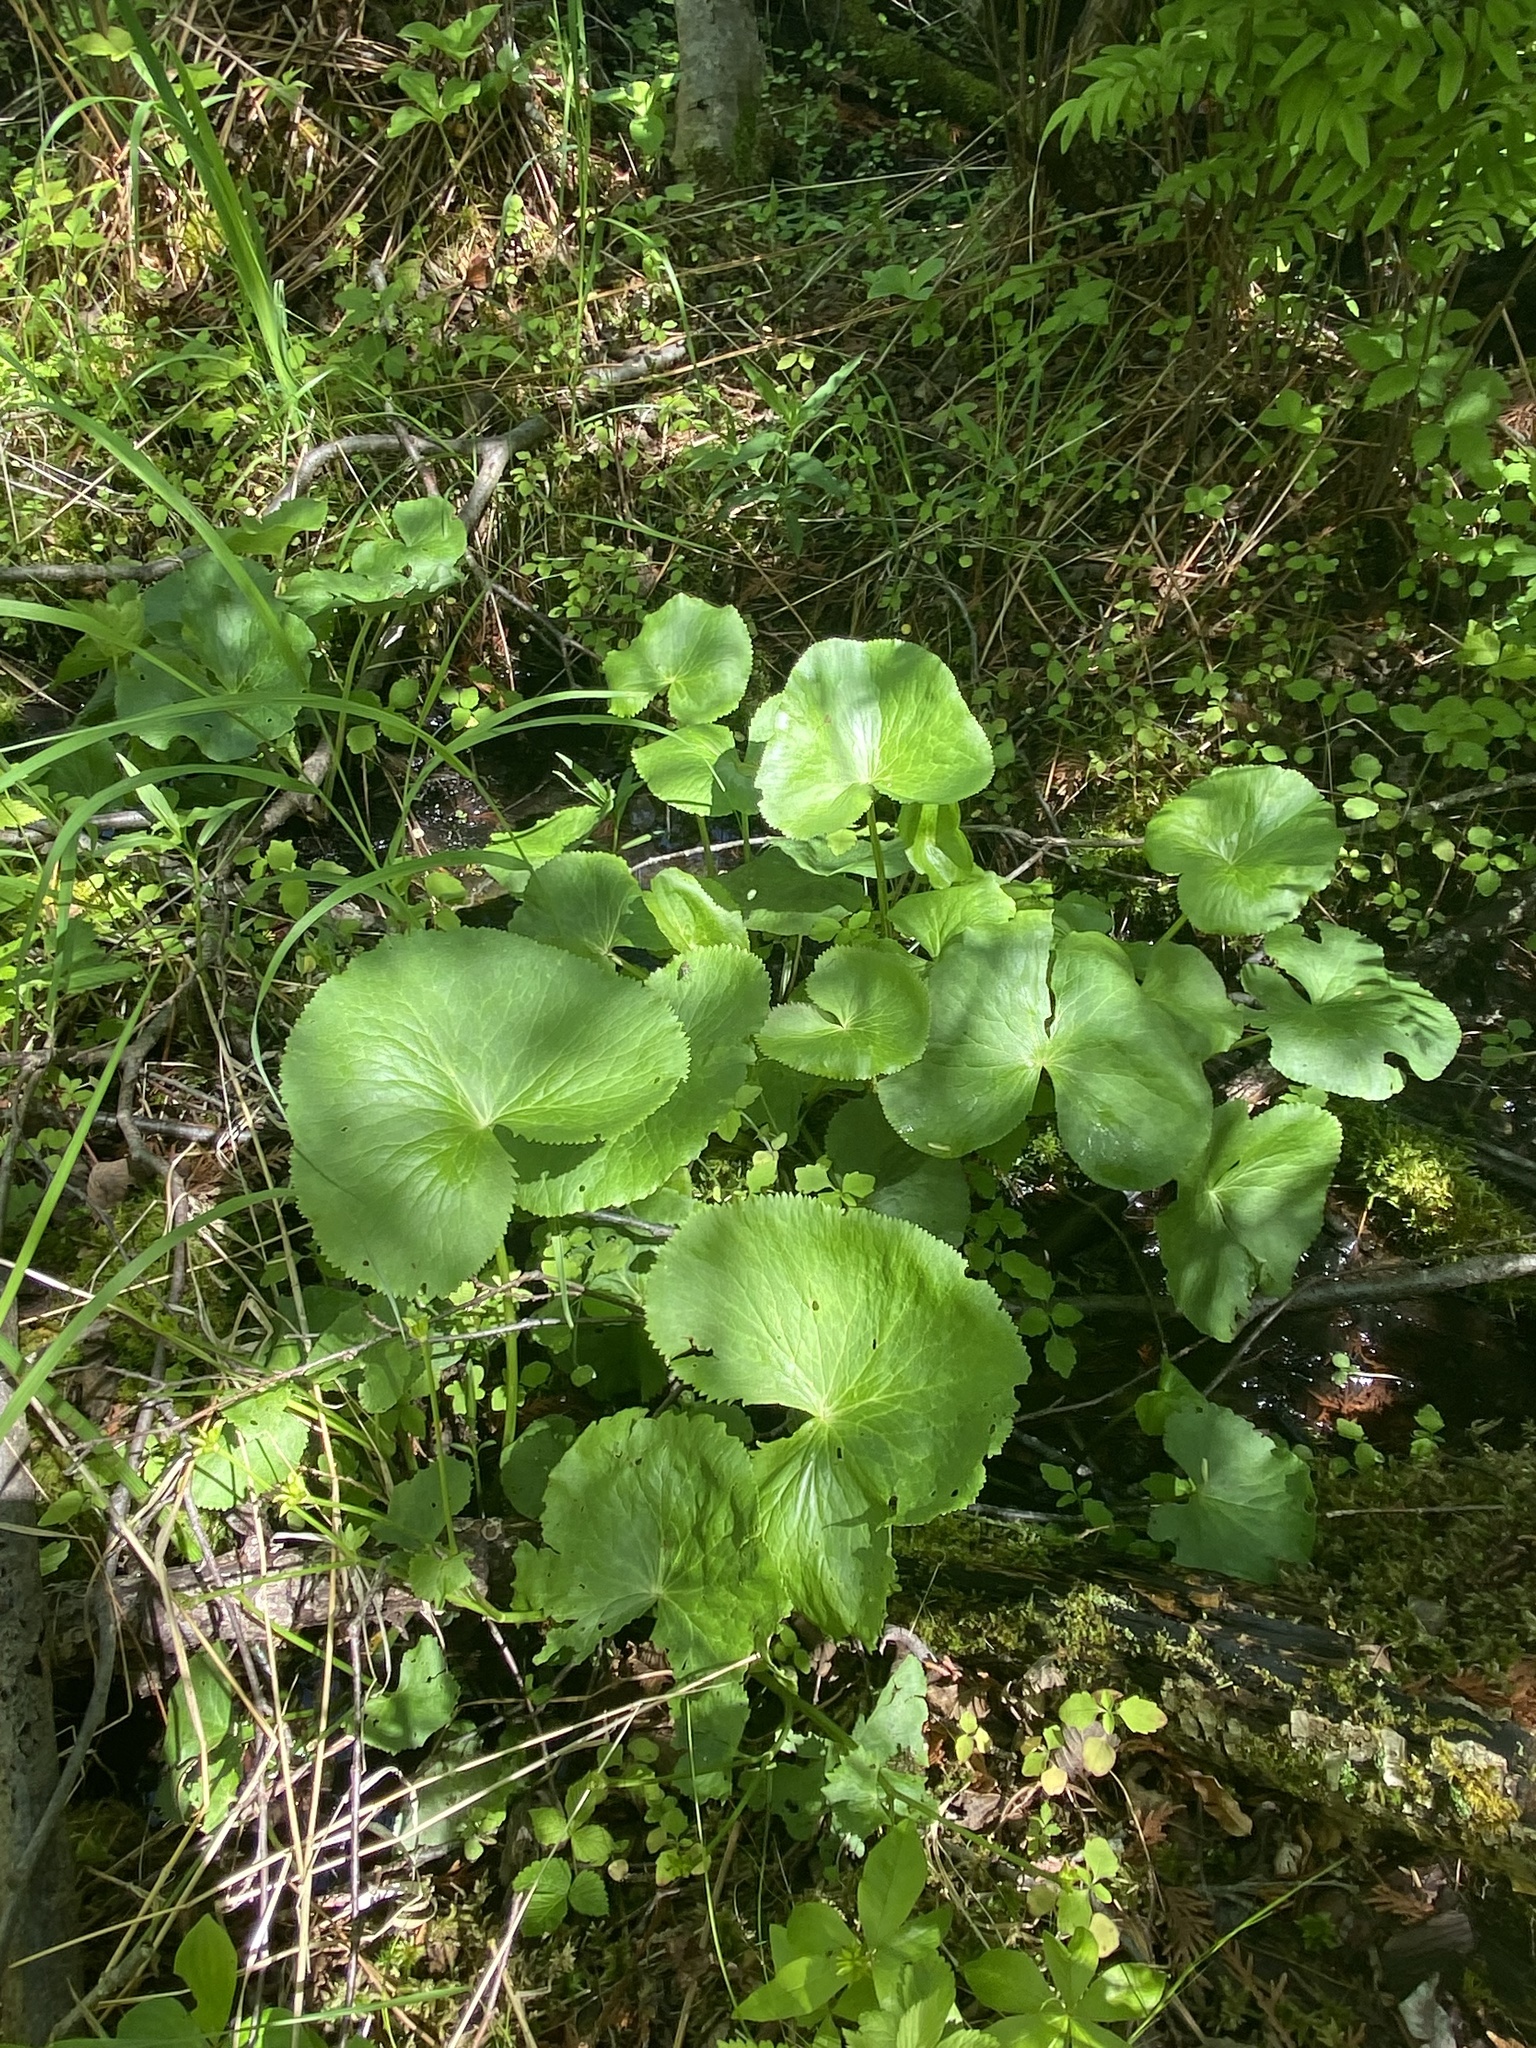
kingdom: Plantae
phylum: Tracheophyta
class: Magnoliopsida
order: Ranunculales
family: Ranunculaceae
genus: Caltha
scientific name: Caltha palustris
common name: Marsh marigold
